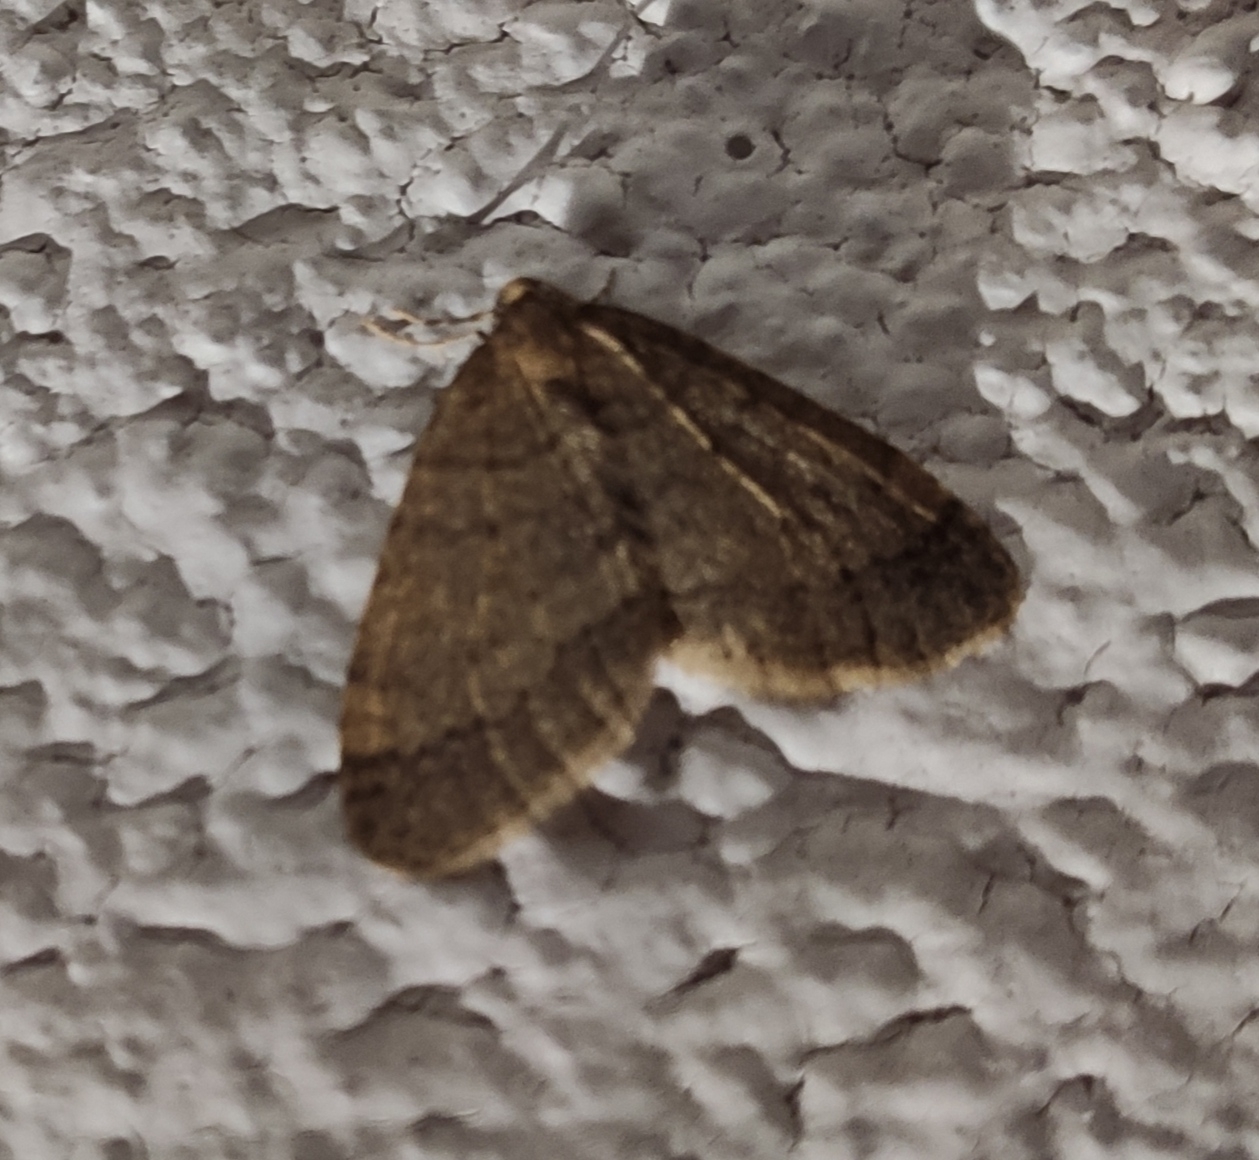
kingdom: Animalia
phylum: Arthropoda
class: Insecta
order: Lepidoptera
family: Geometridae
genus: Operophtera
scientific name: Operophtera brumata
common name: Winter moth
